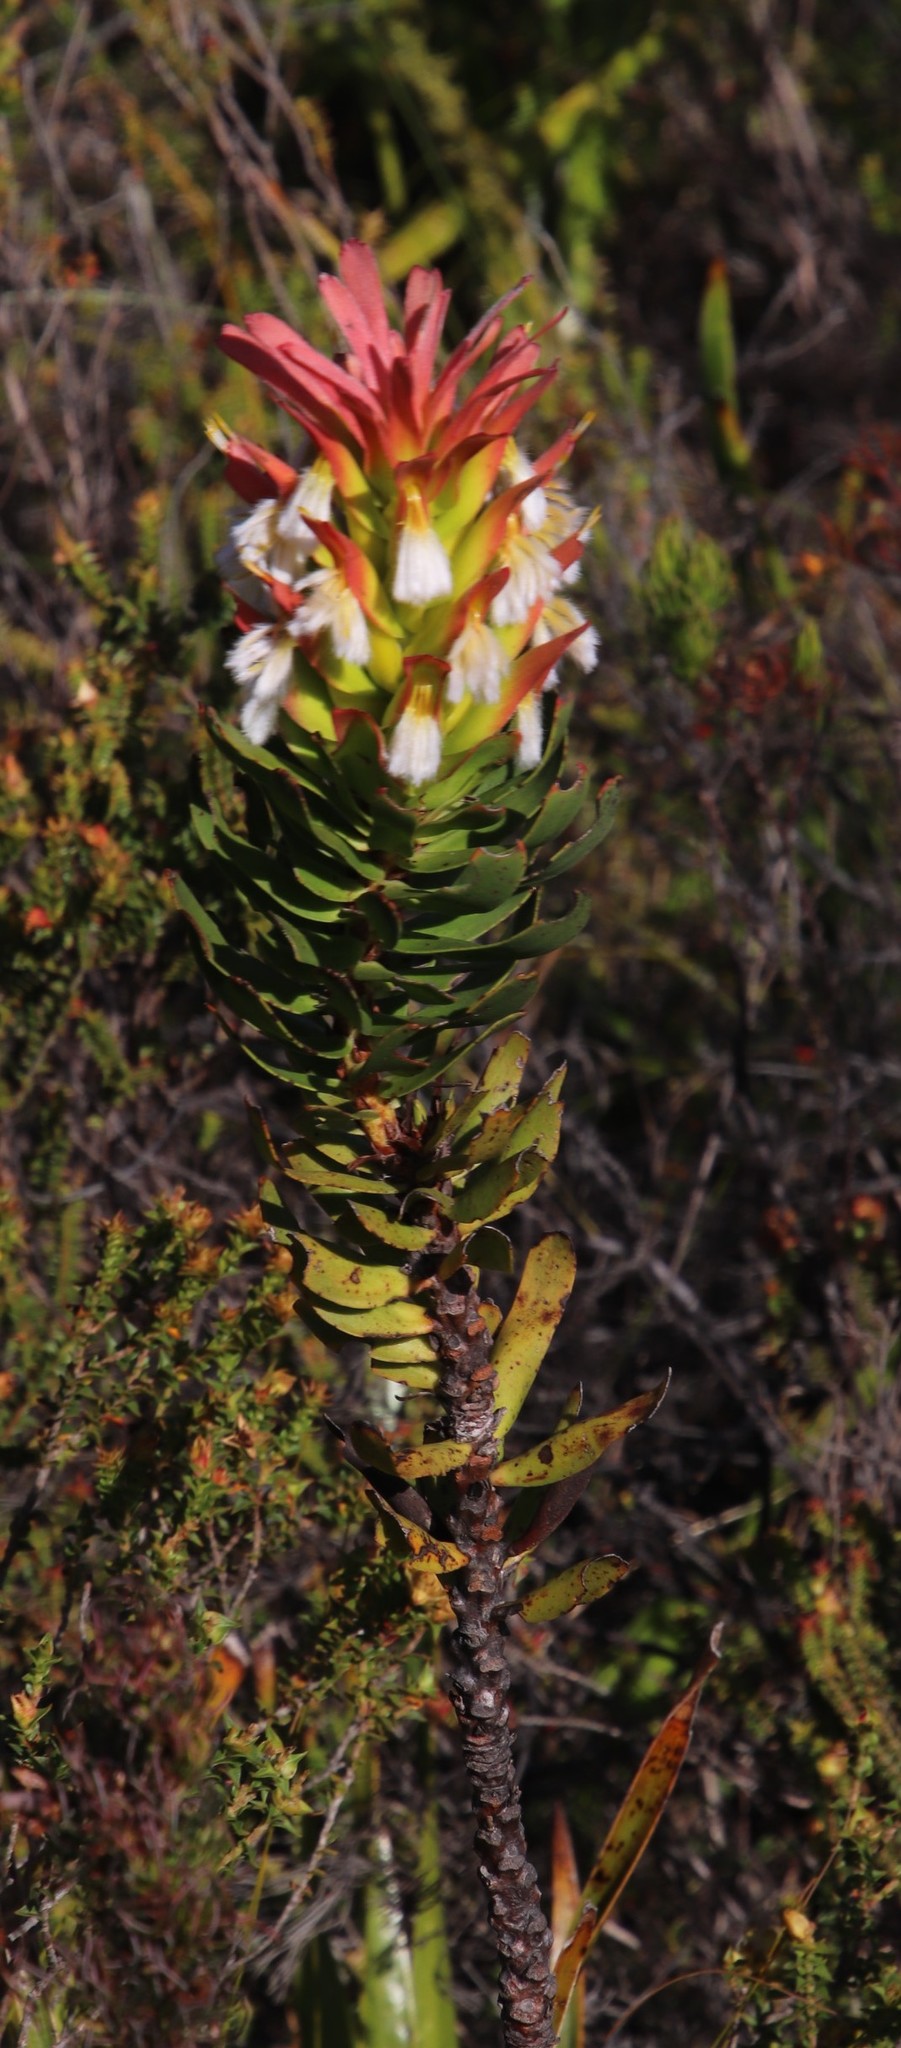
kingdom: Plantae
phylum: Tracheophyta
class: Magnoliopsida
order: Proteales
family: Proteaceae
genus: Mimetes
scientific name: Mimetes cucullatus
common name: Common pagoda
